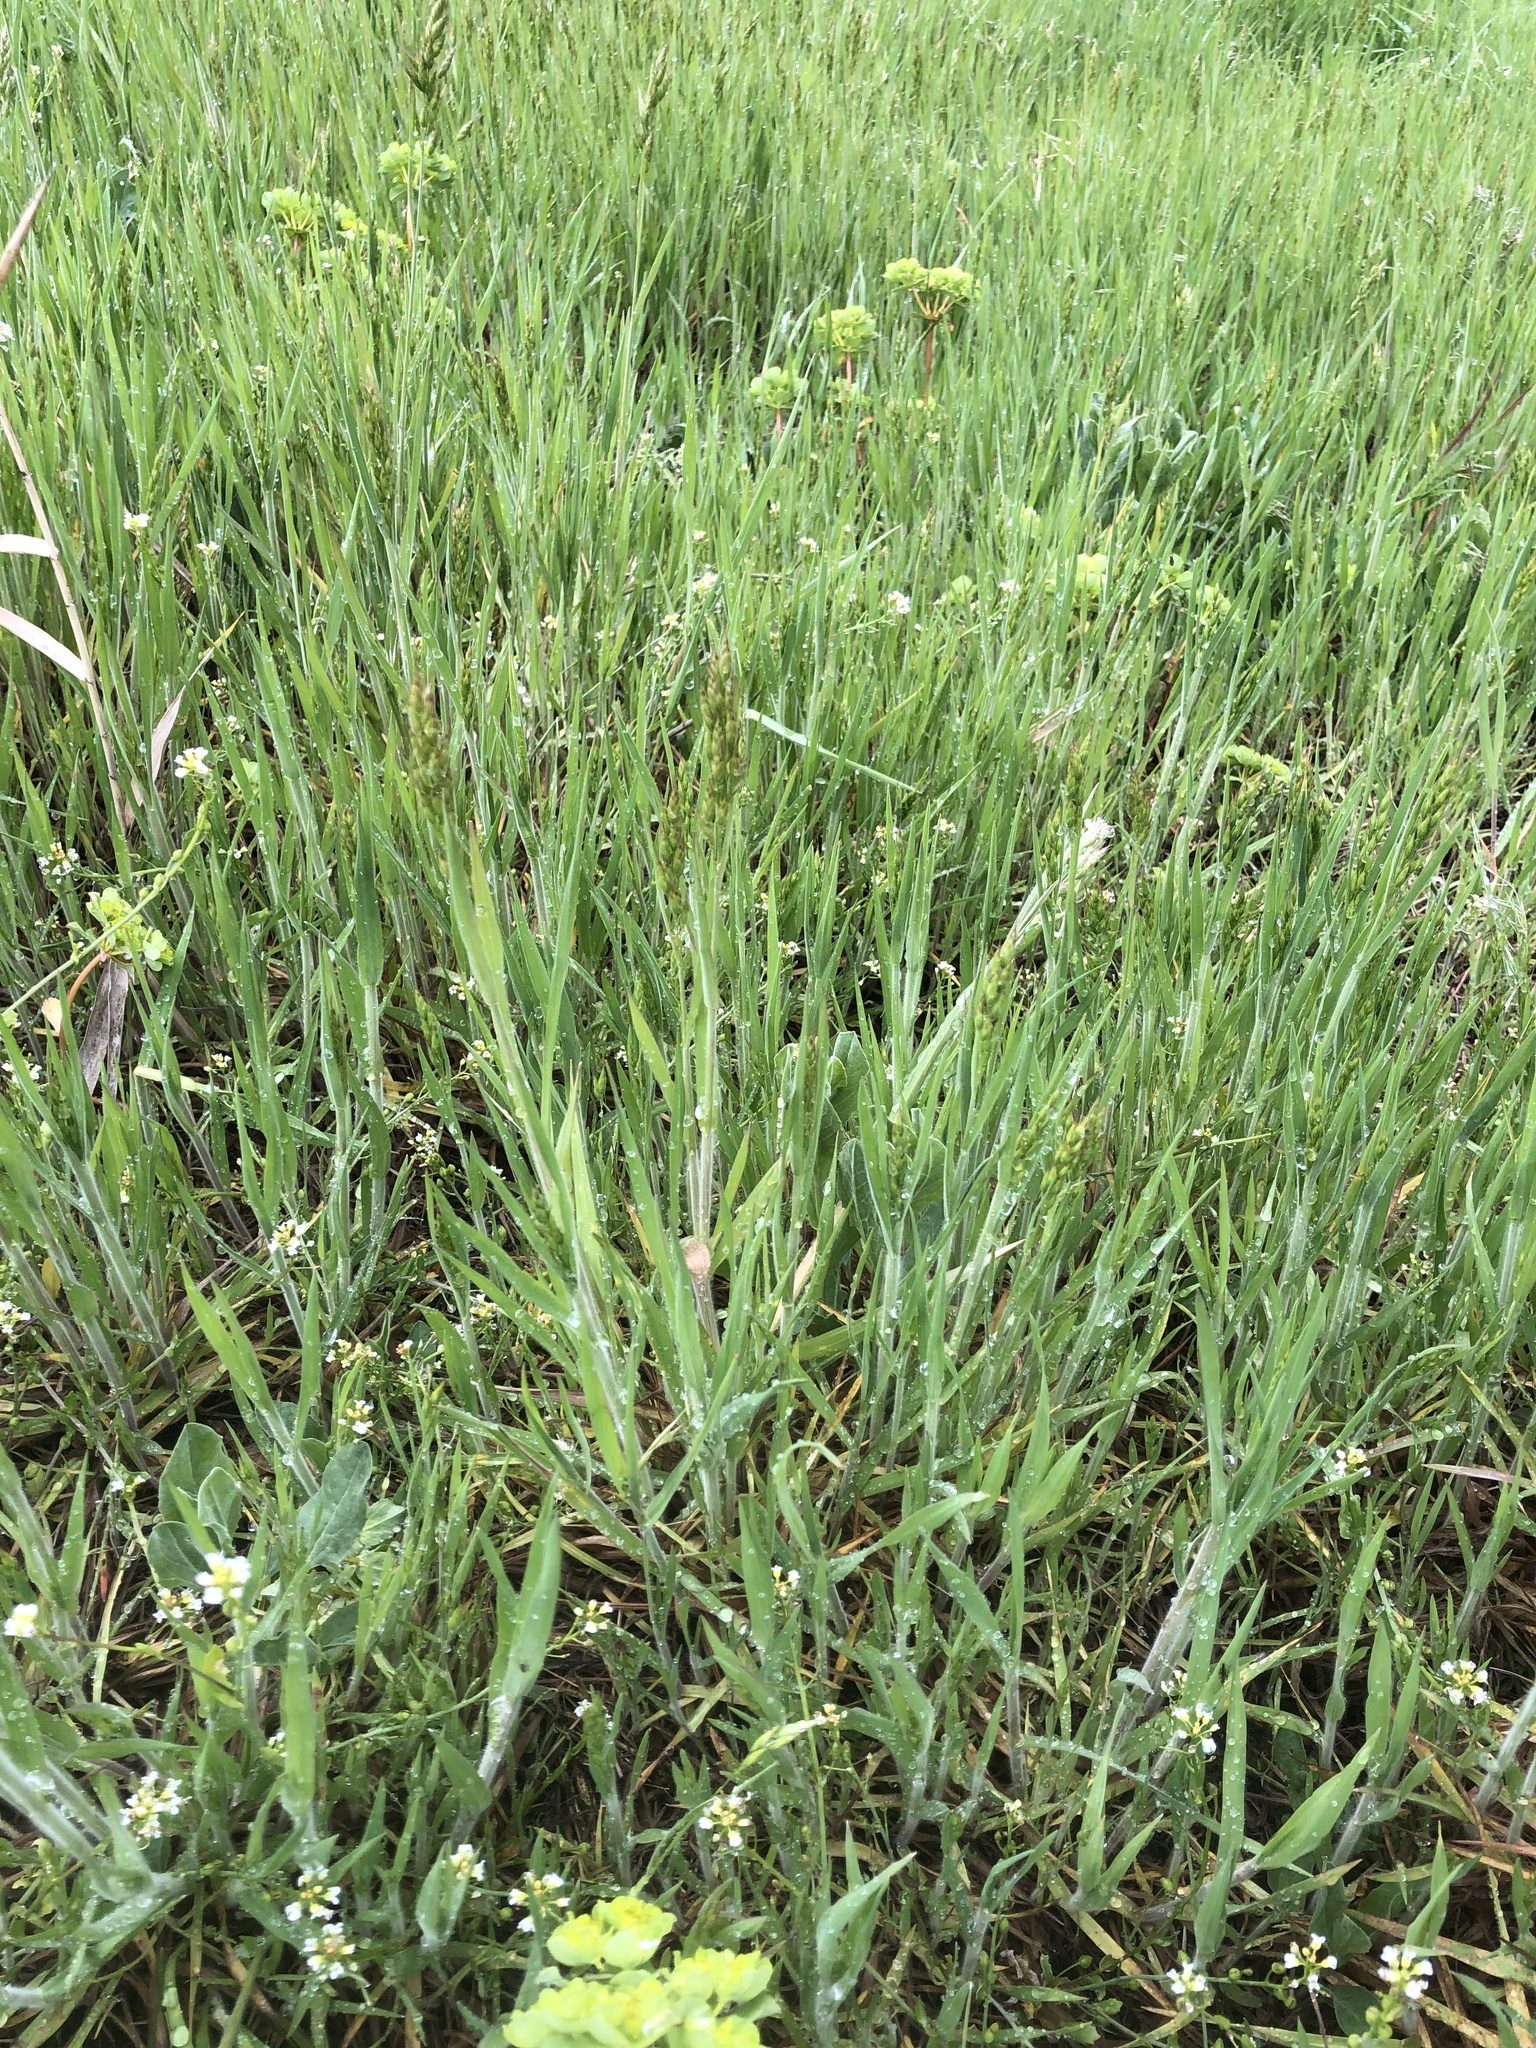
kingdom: Plantae
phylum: Tracheophyta
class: Liliopsida
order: Poales
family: Poaceae
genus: Bromus
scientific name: Bromus hordeaceus
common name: Soft brome
